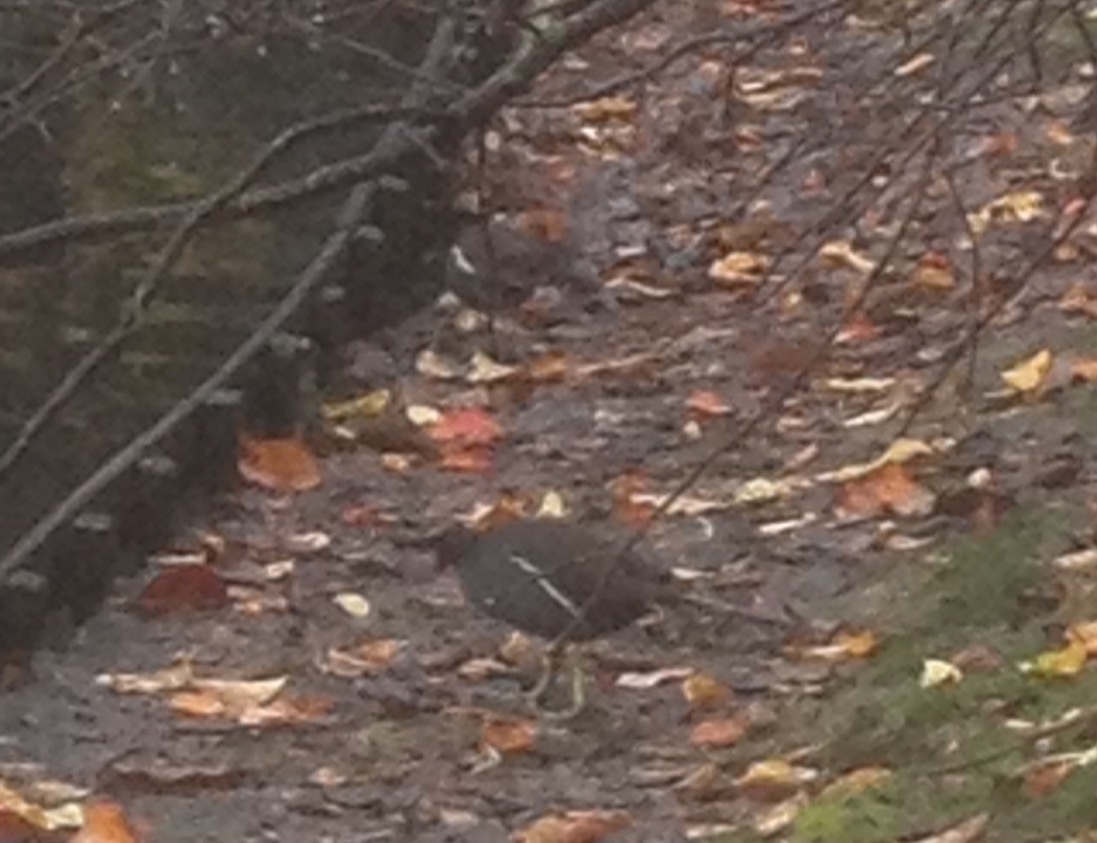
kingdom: Animalia
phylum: Chordata
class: Aves
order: Gruiformes
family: Rallidae
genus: Gallinula
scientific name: Gallinula chloropus
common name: Common moorhen
